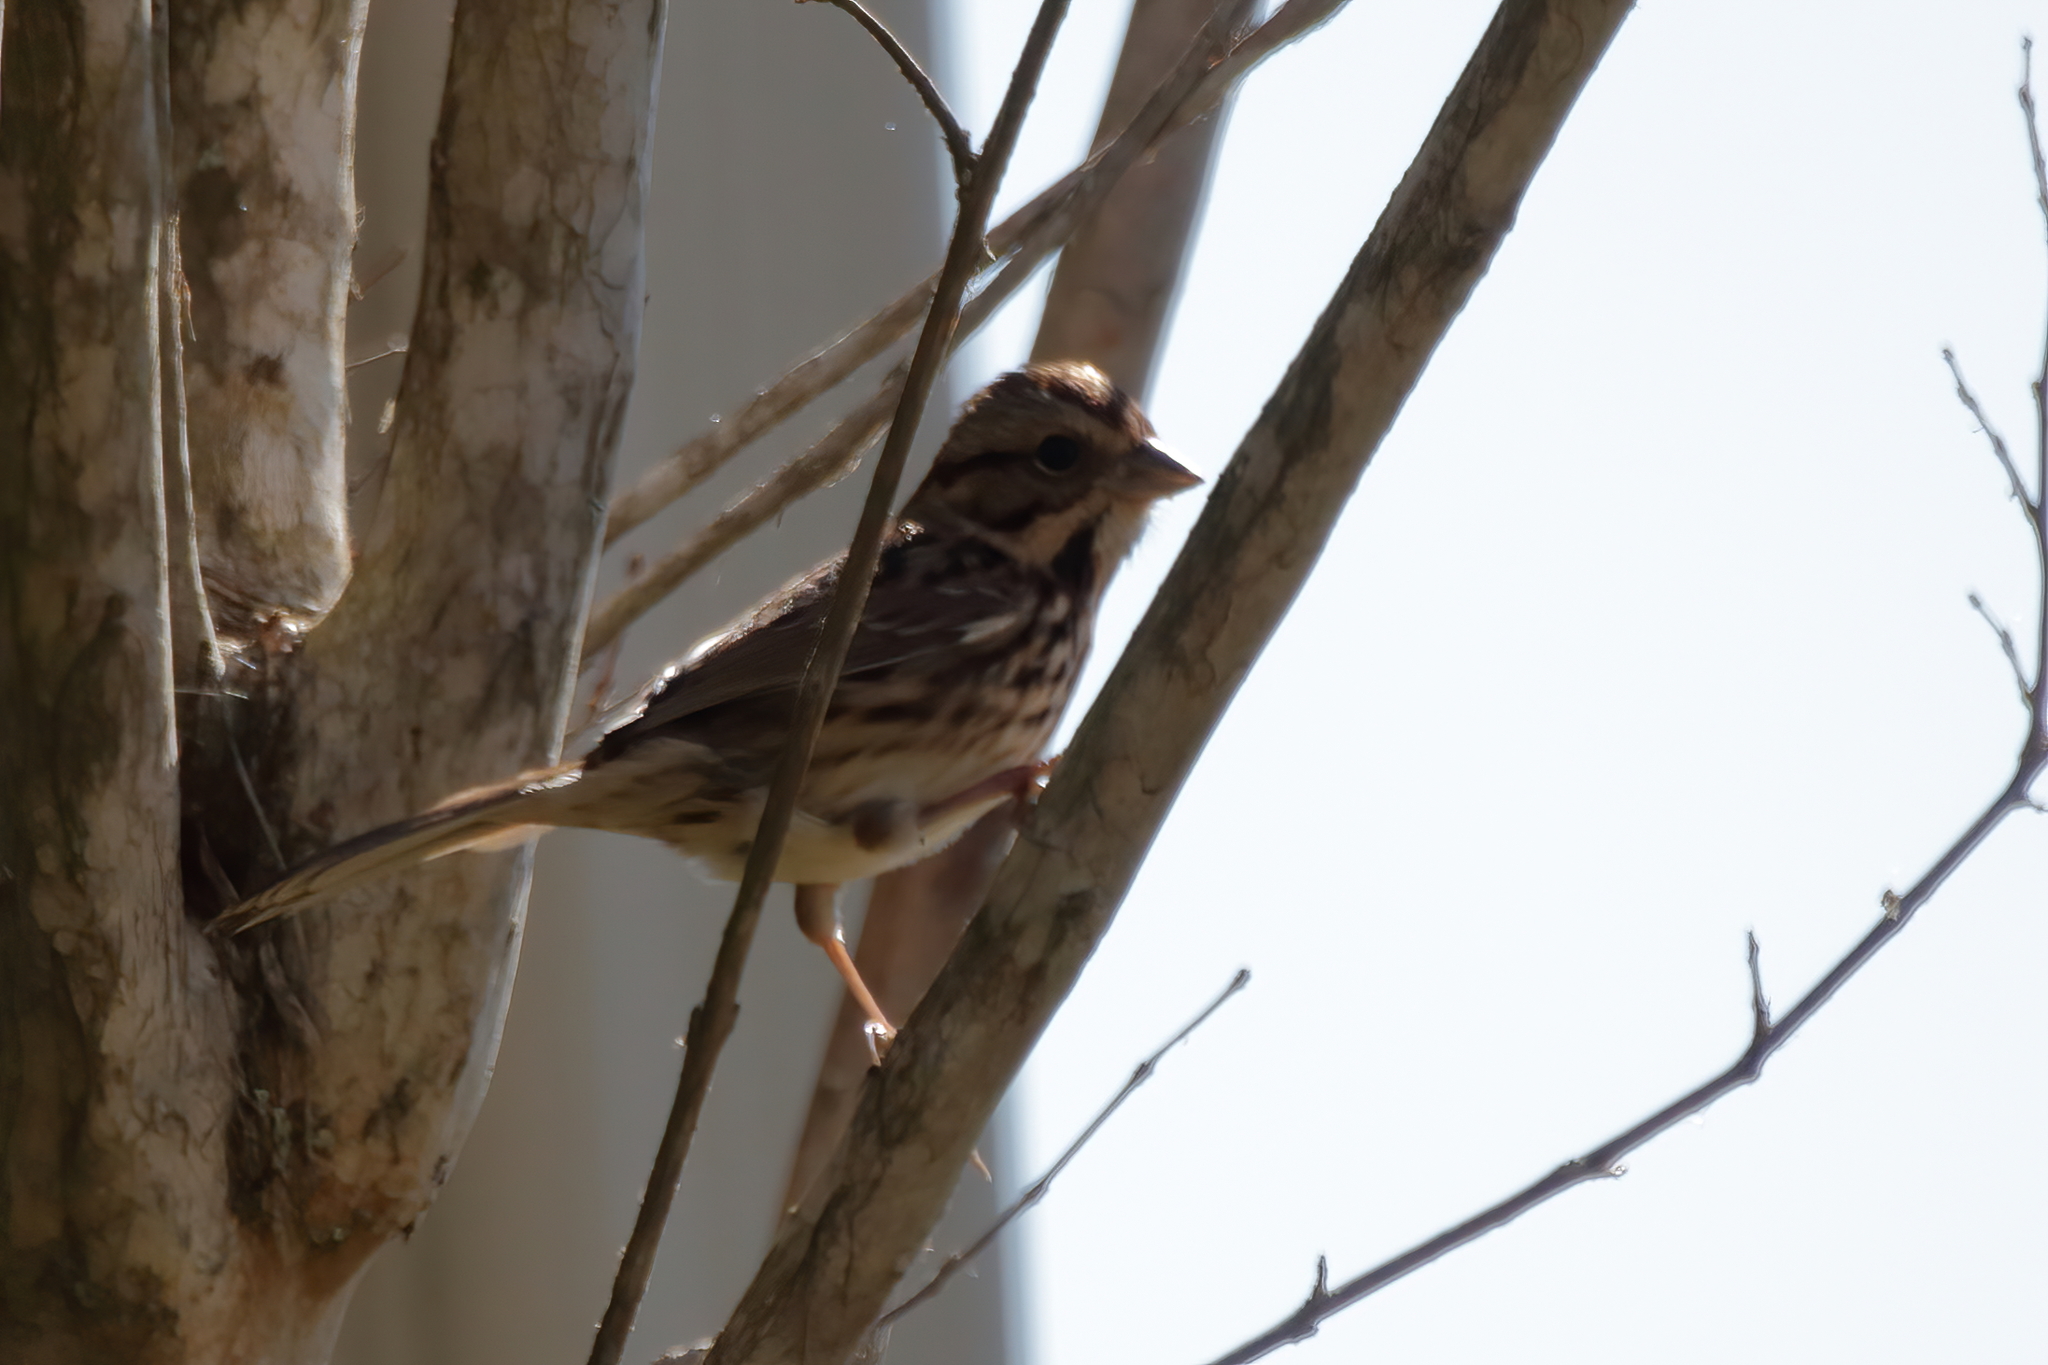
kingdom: Animalia
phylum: Chordata
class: Aves
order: Passeriformes
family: Passerellidae
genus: Melospiza
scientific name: Melospiza melodia
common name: Song sparrow
